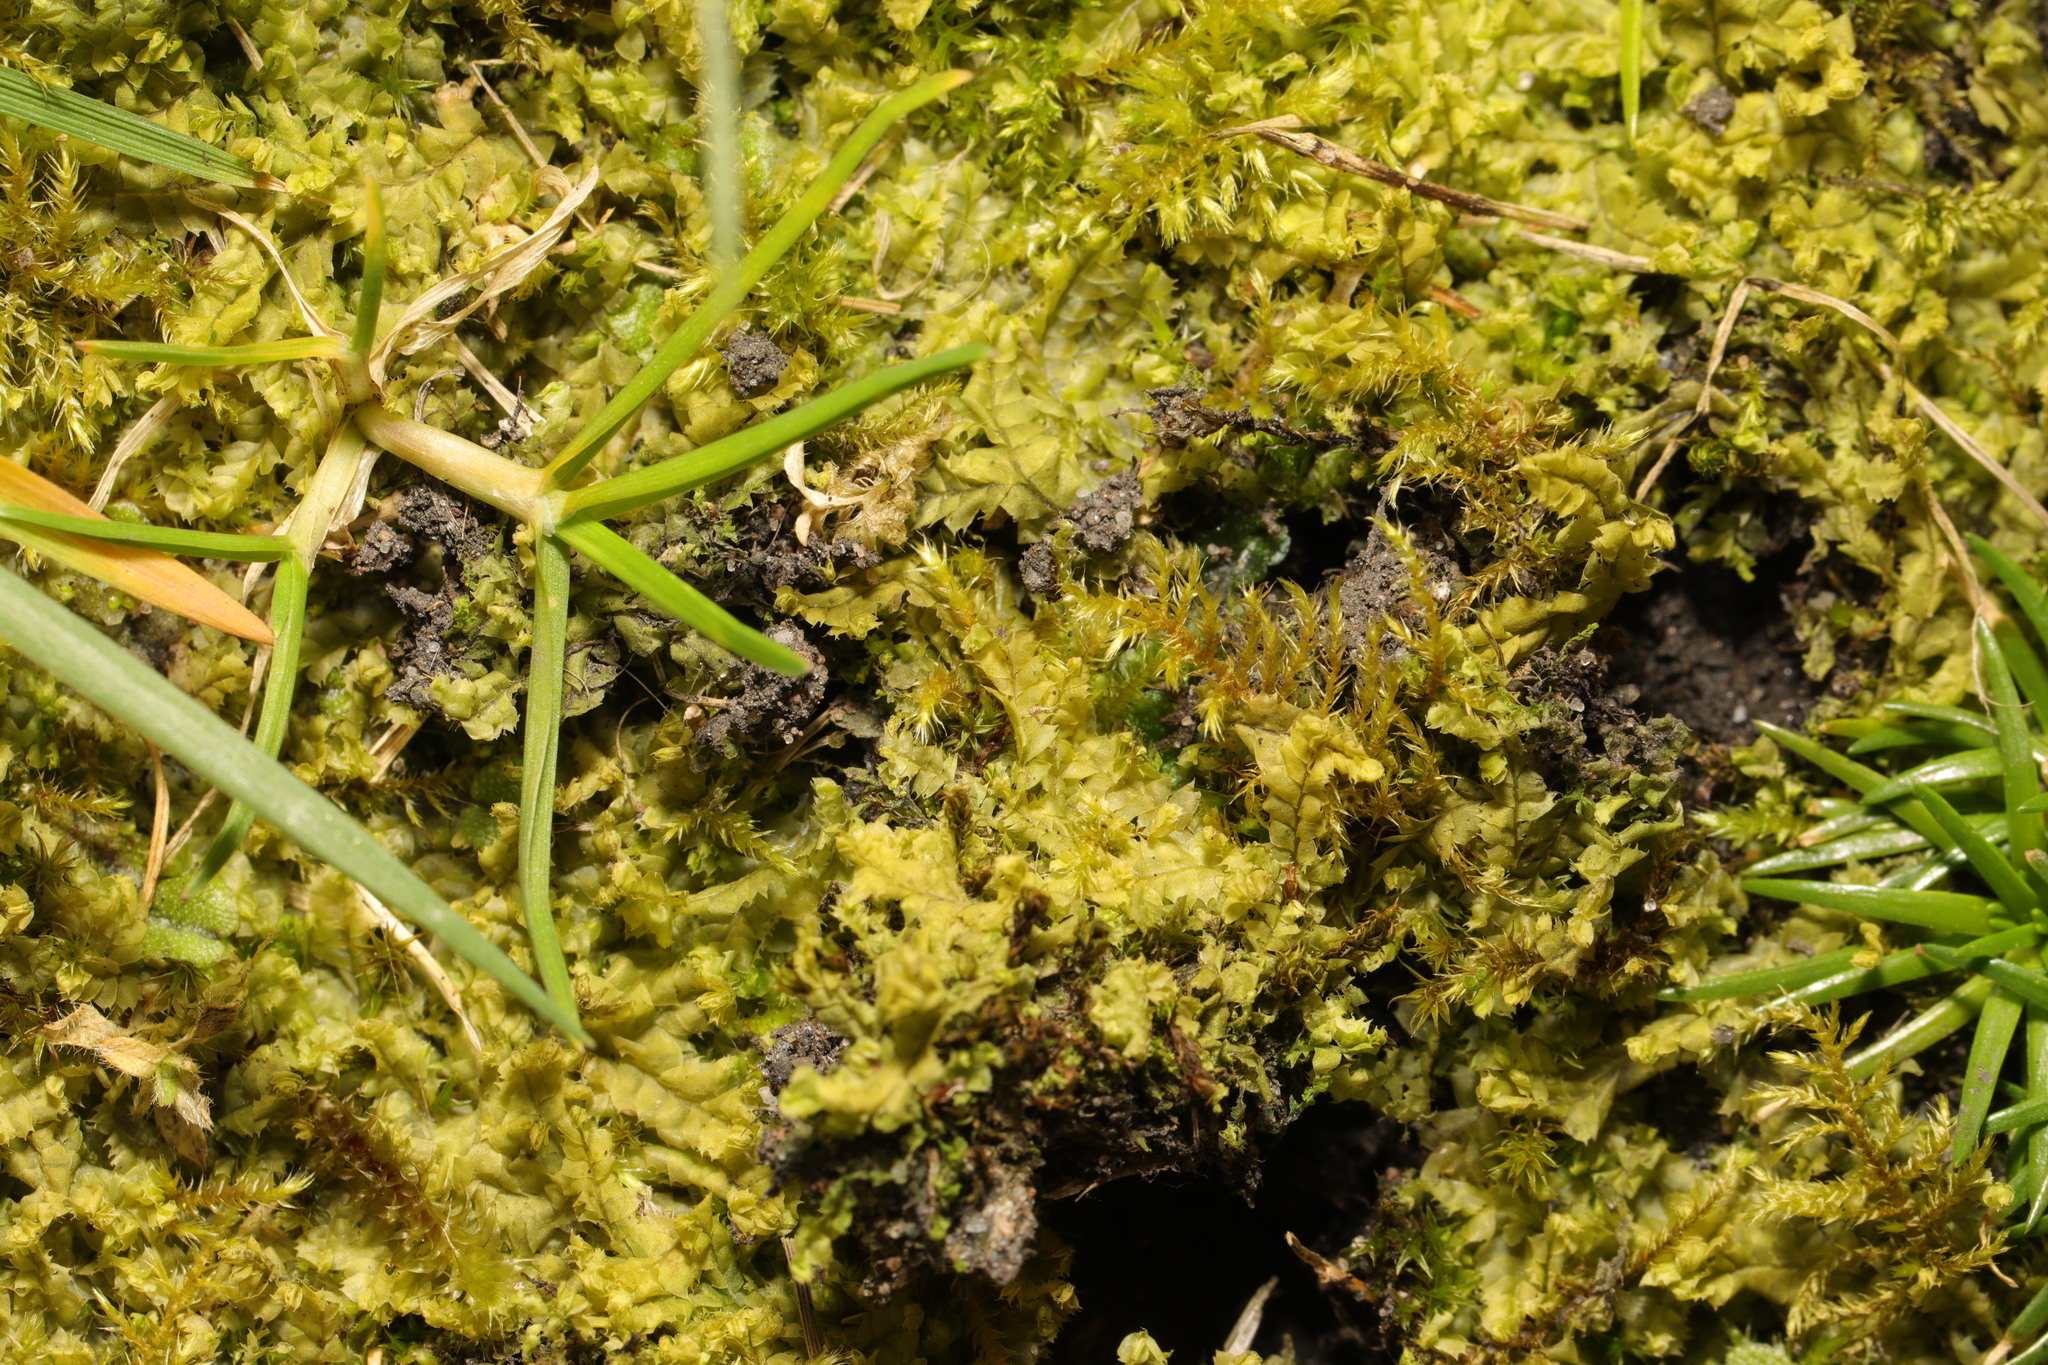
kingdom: Plantae
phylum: Marchantiophyta
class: Jungermanniopsida
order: Jungermanniales
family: Lophocoleaceae
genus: Lophocolea
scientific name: Lophocolea bidentata
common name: Bifid crestwort
